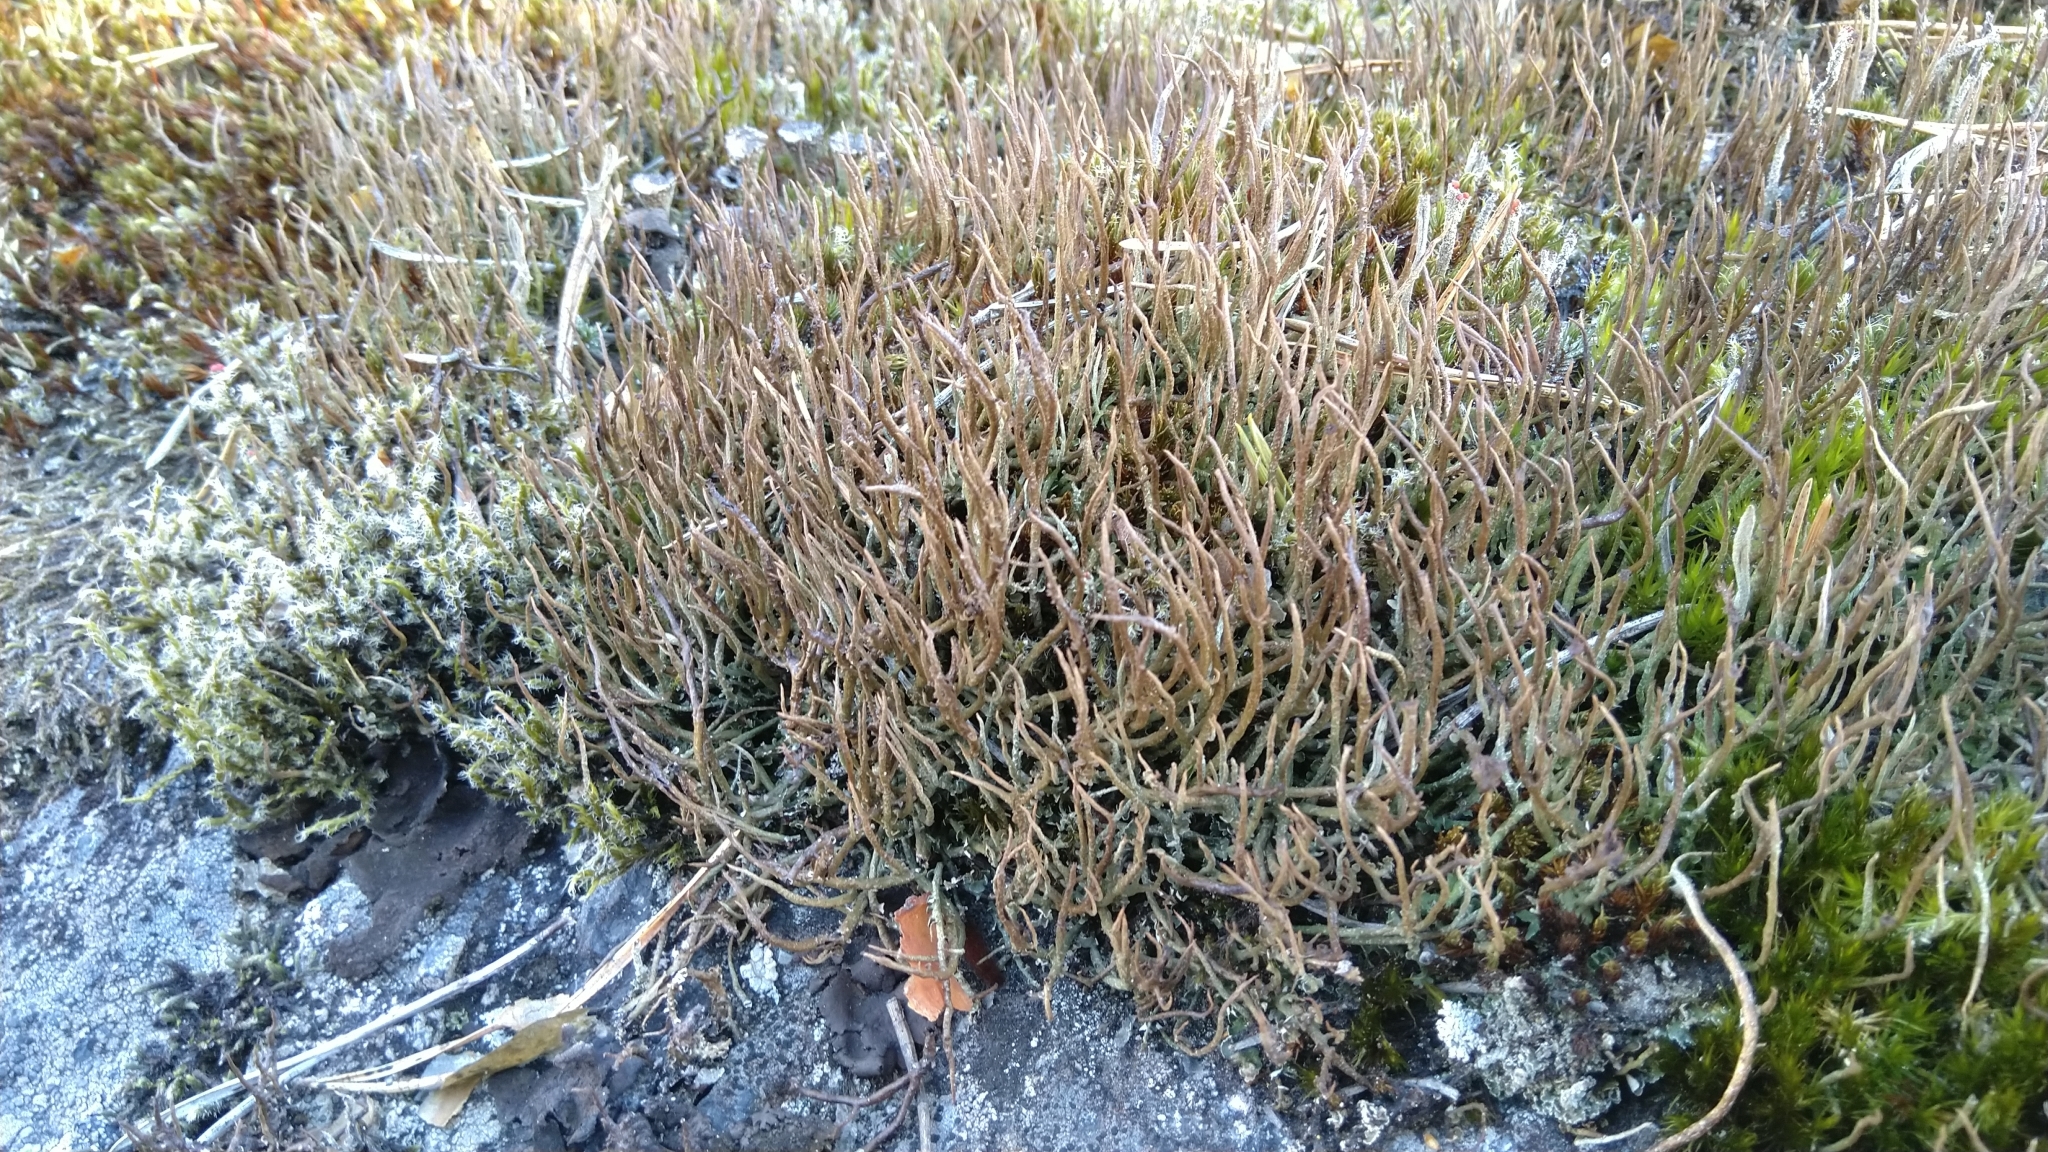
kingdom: Fungi
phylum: Ascomycota
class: Lecanoromycetes
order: Lecanorales
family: Cladoniaceae
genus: Cladonia
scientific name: Cladonia gracilis
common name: Smooth clad lichen
